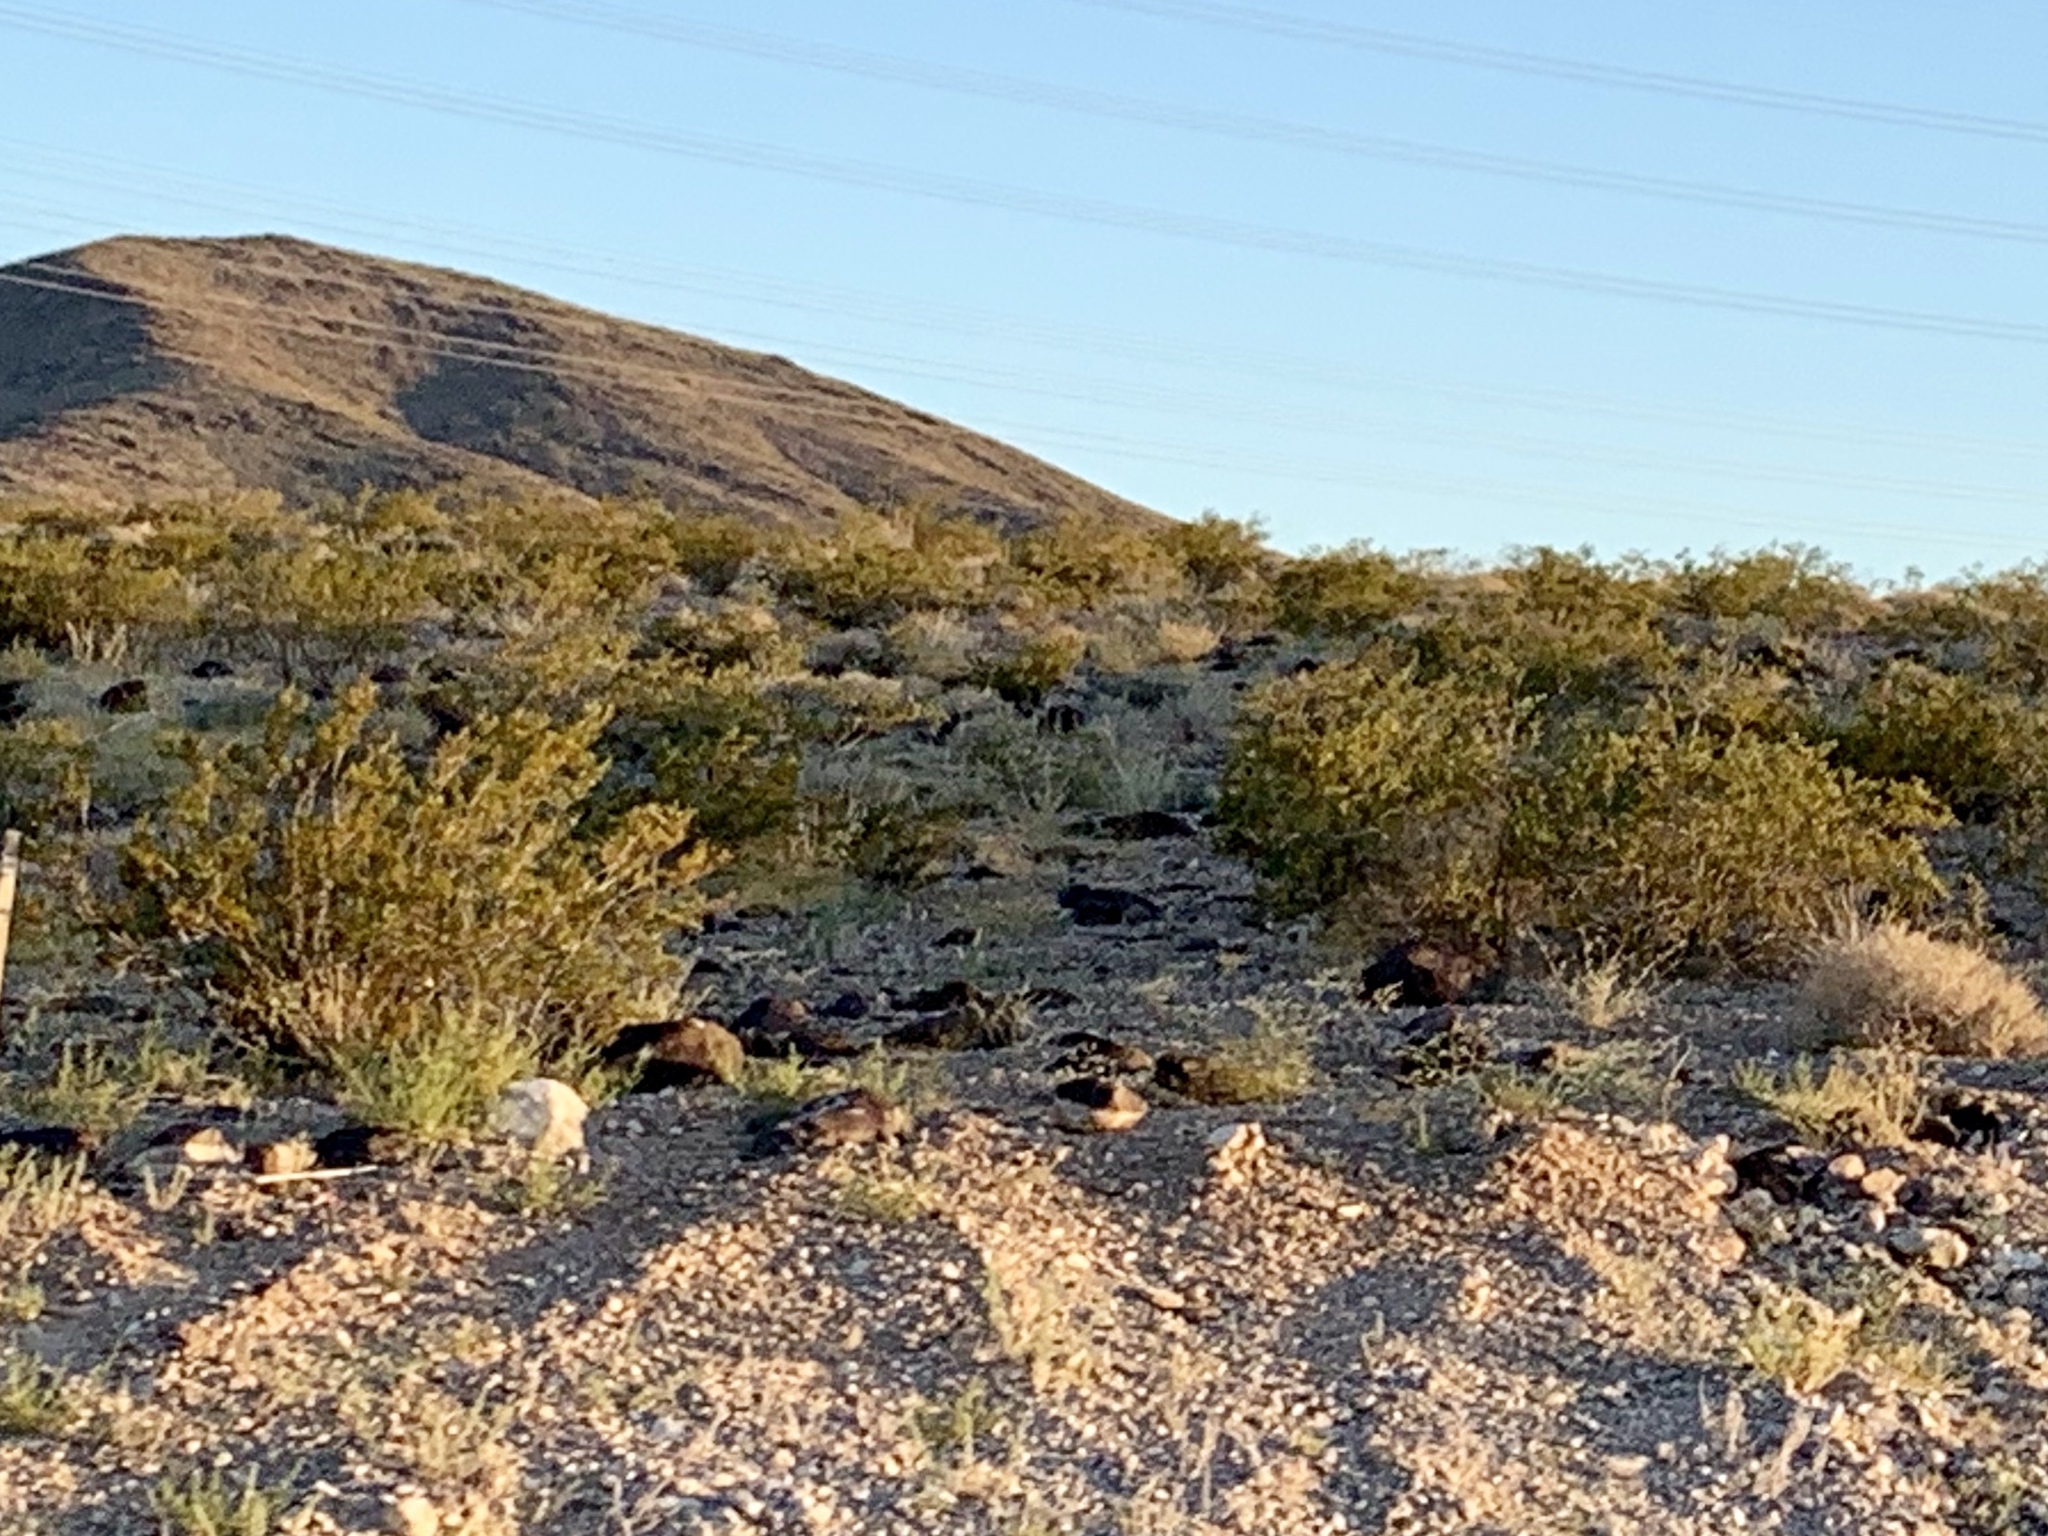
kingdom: Plantae
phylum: Tracheophyta
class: Magnoliopsida
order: Zygophyllales
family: Zygophyllaceae
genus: Larrea
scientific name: Larrea tridentata
